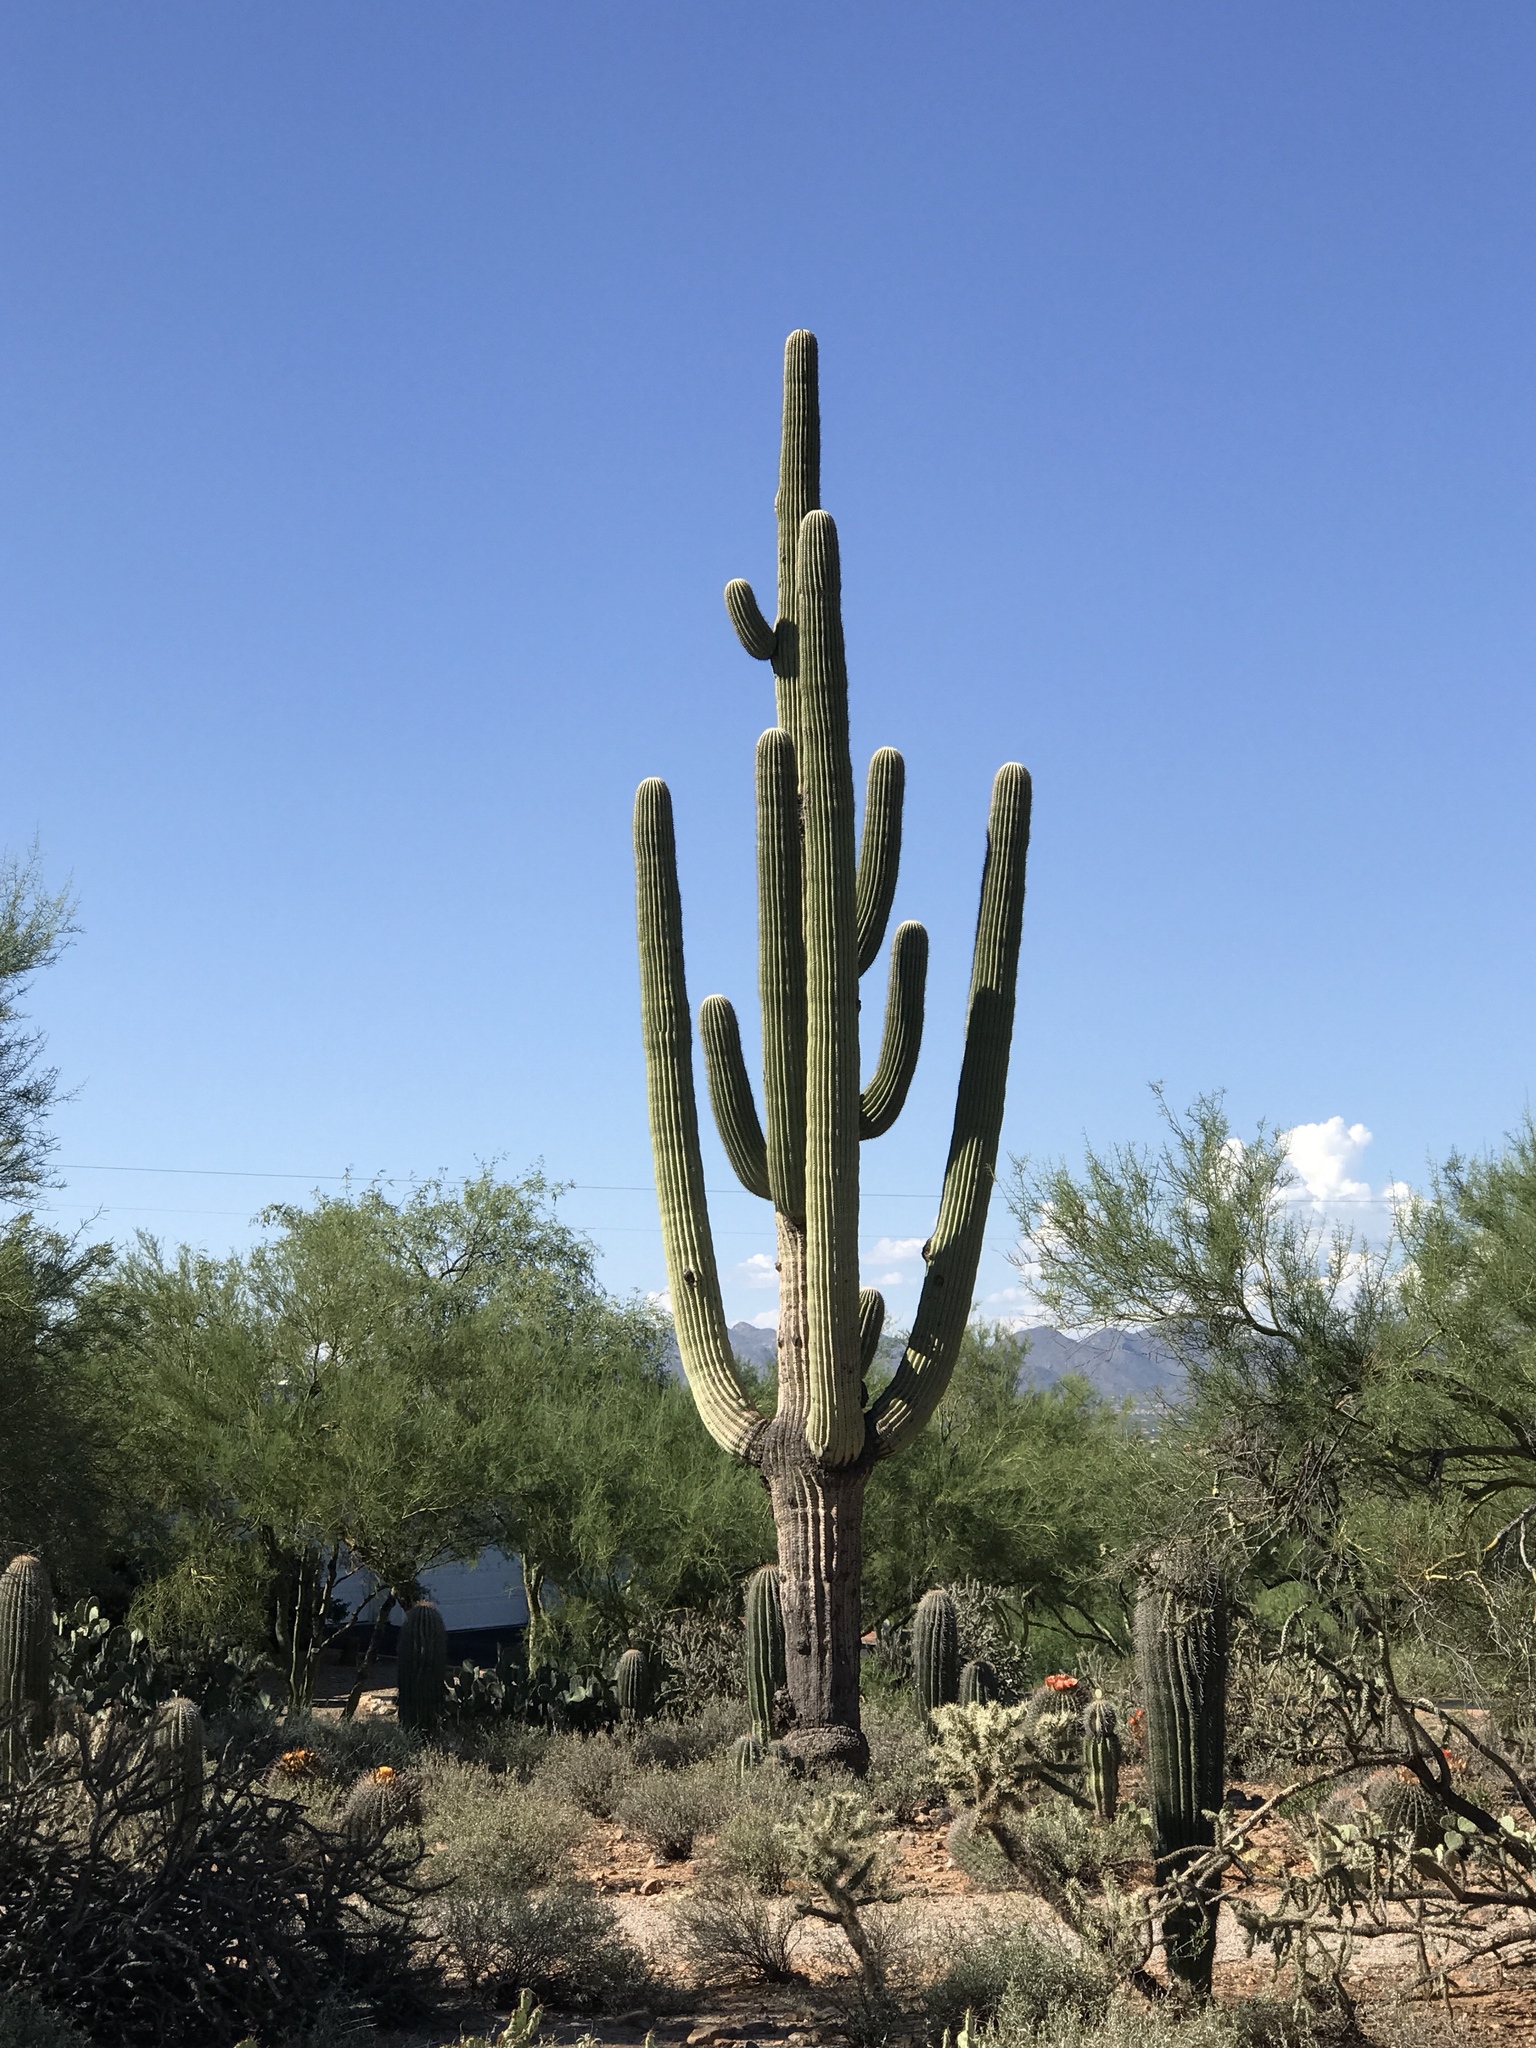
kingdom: Plantae
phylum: Tracheophyta
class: Magnoliopsida
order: Caryophyllales
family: Cactaceae
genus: Carnegiea
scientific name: Carnegiea gigantea
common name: Saguaro
